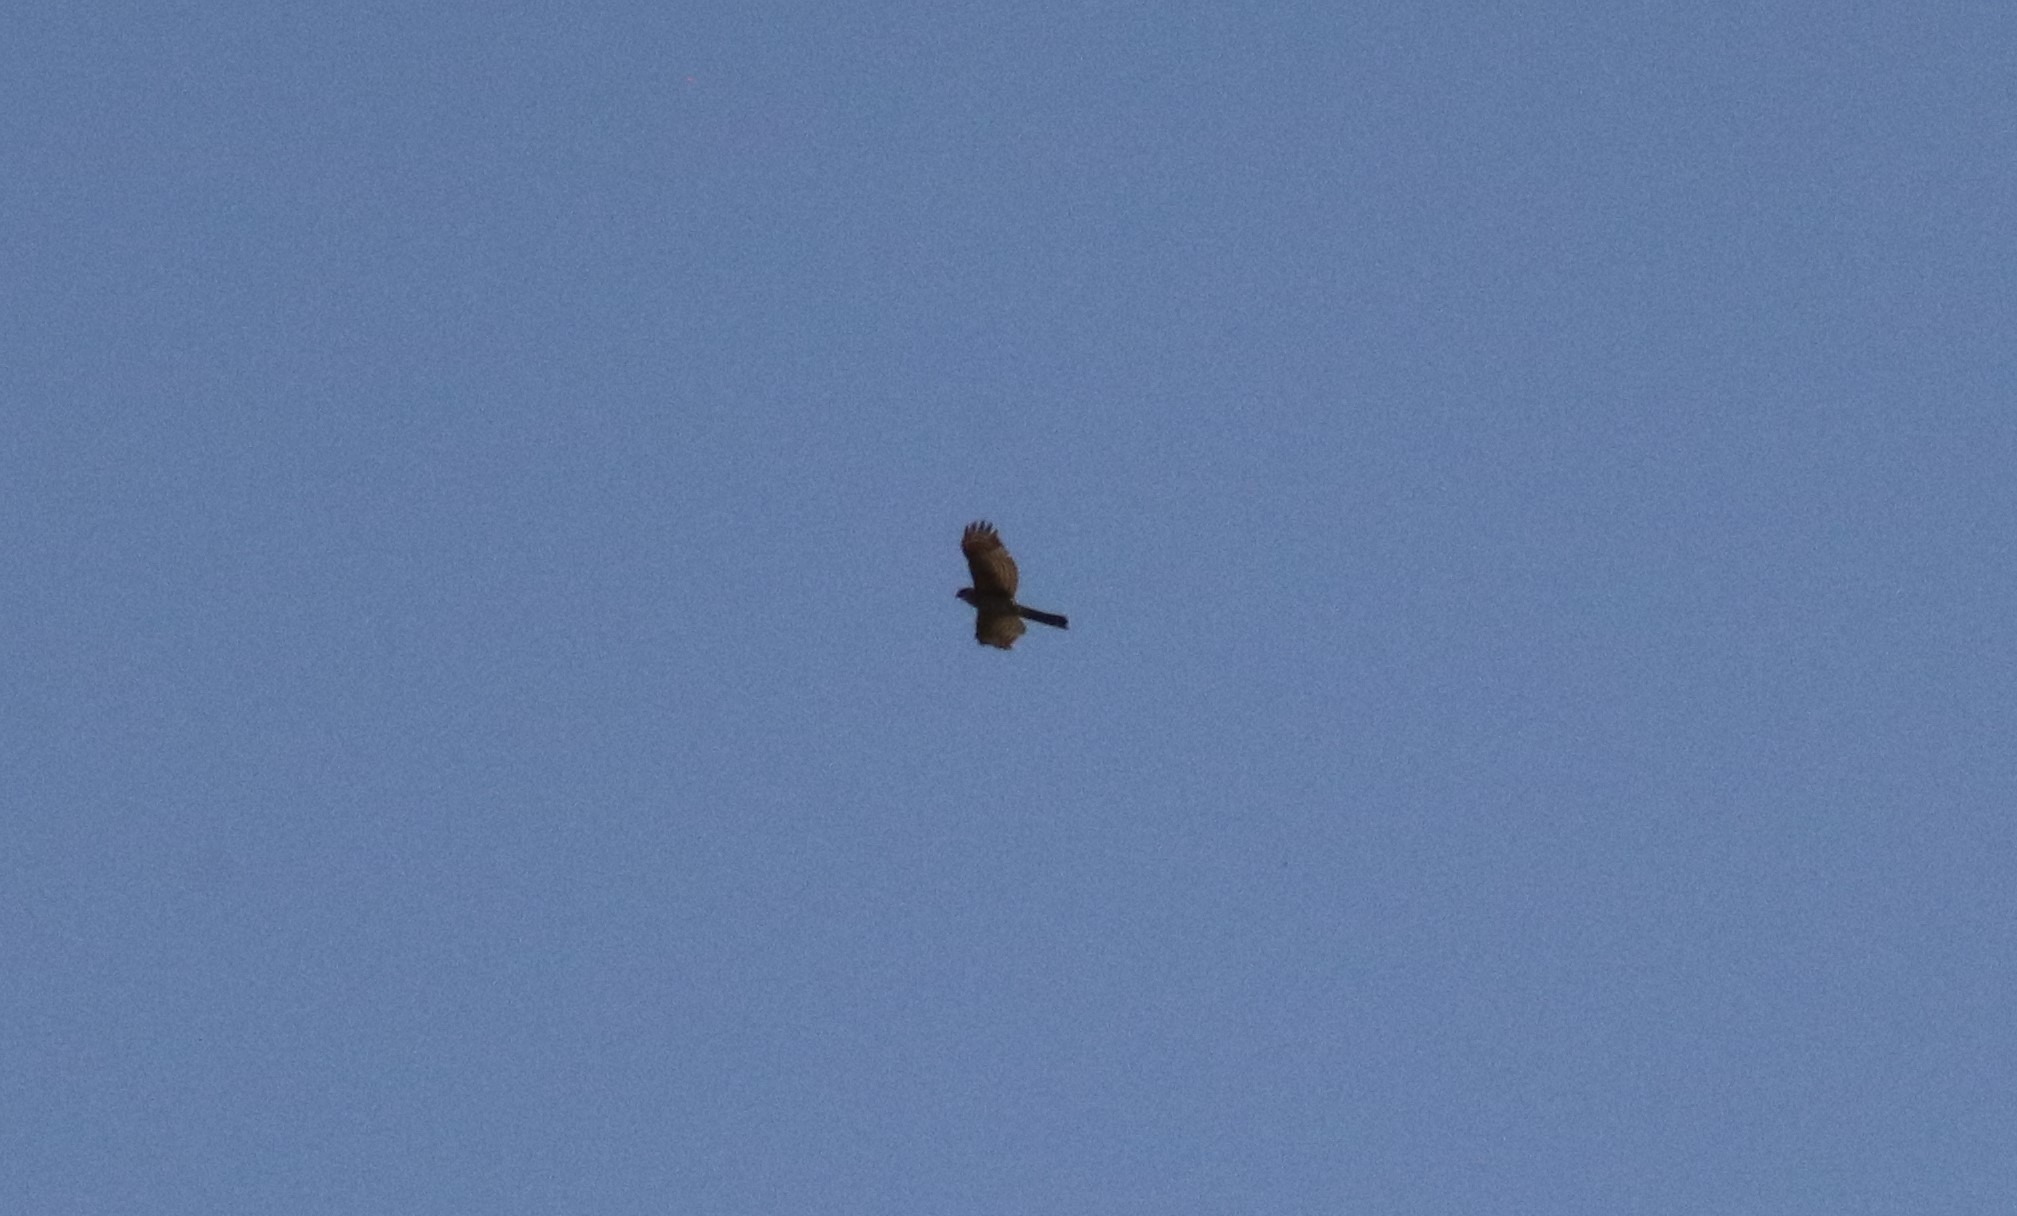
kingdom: Animalia
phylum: Chordata
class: Aves
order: Accipitriformes
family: Accipitridae
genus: Accipiter
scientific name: Accipiter cooperii
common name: Cooper's hawk
